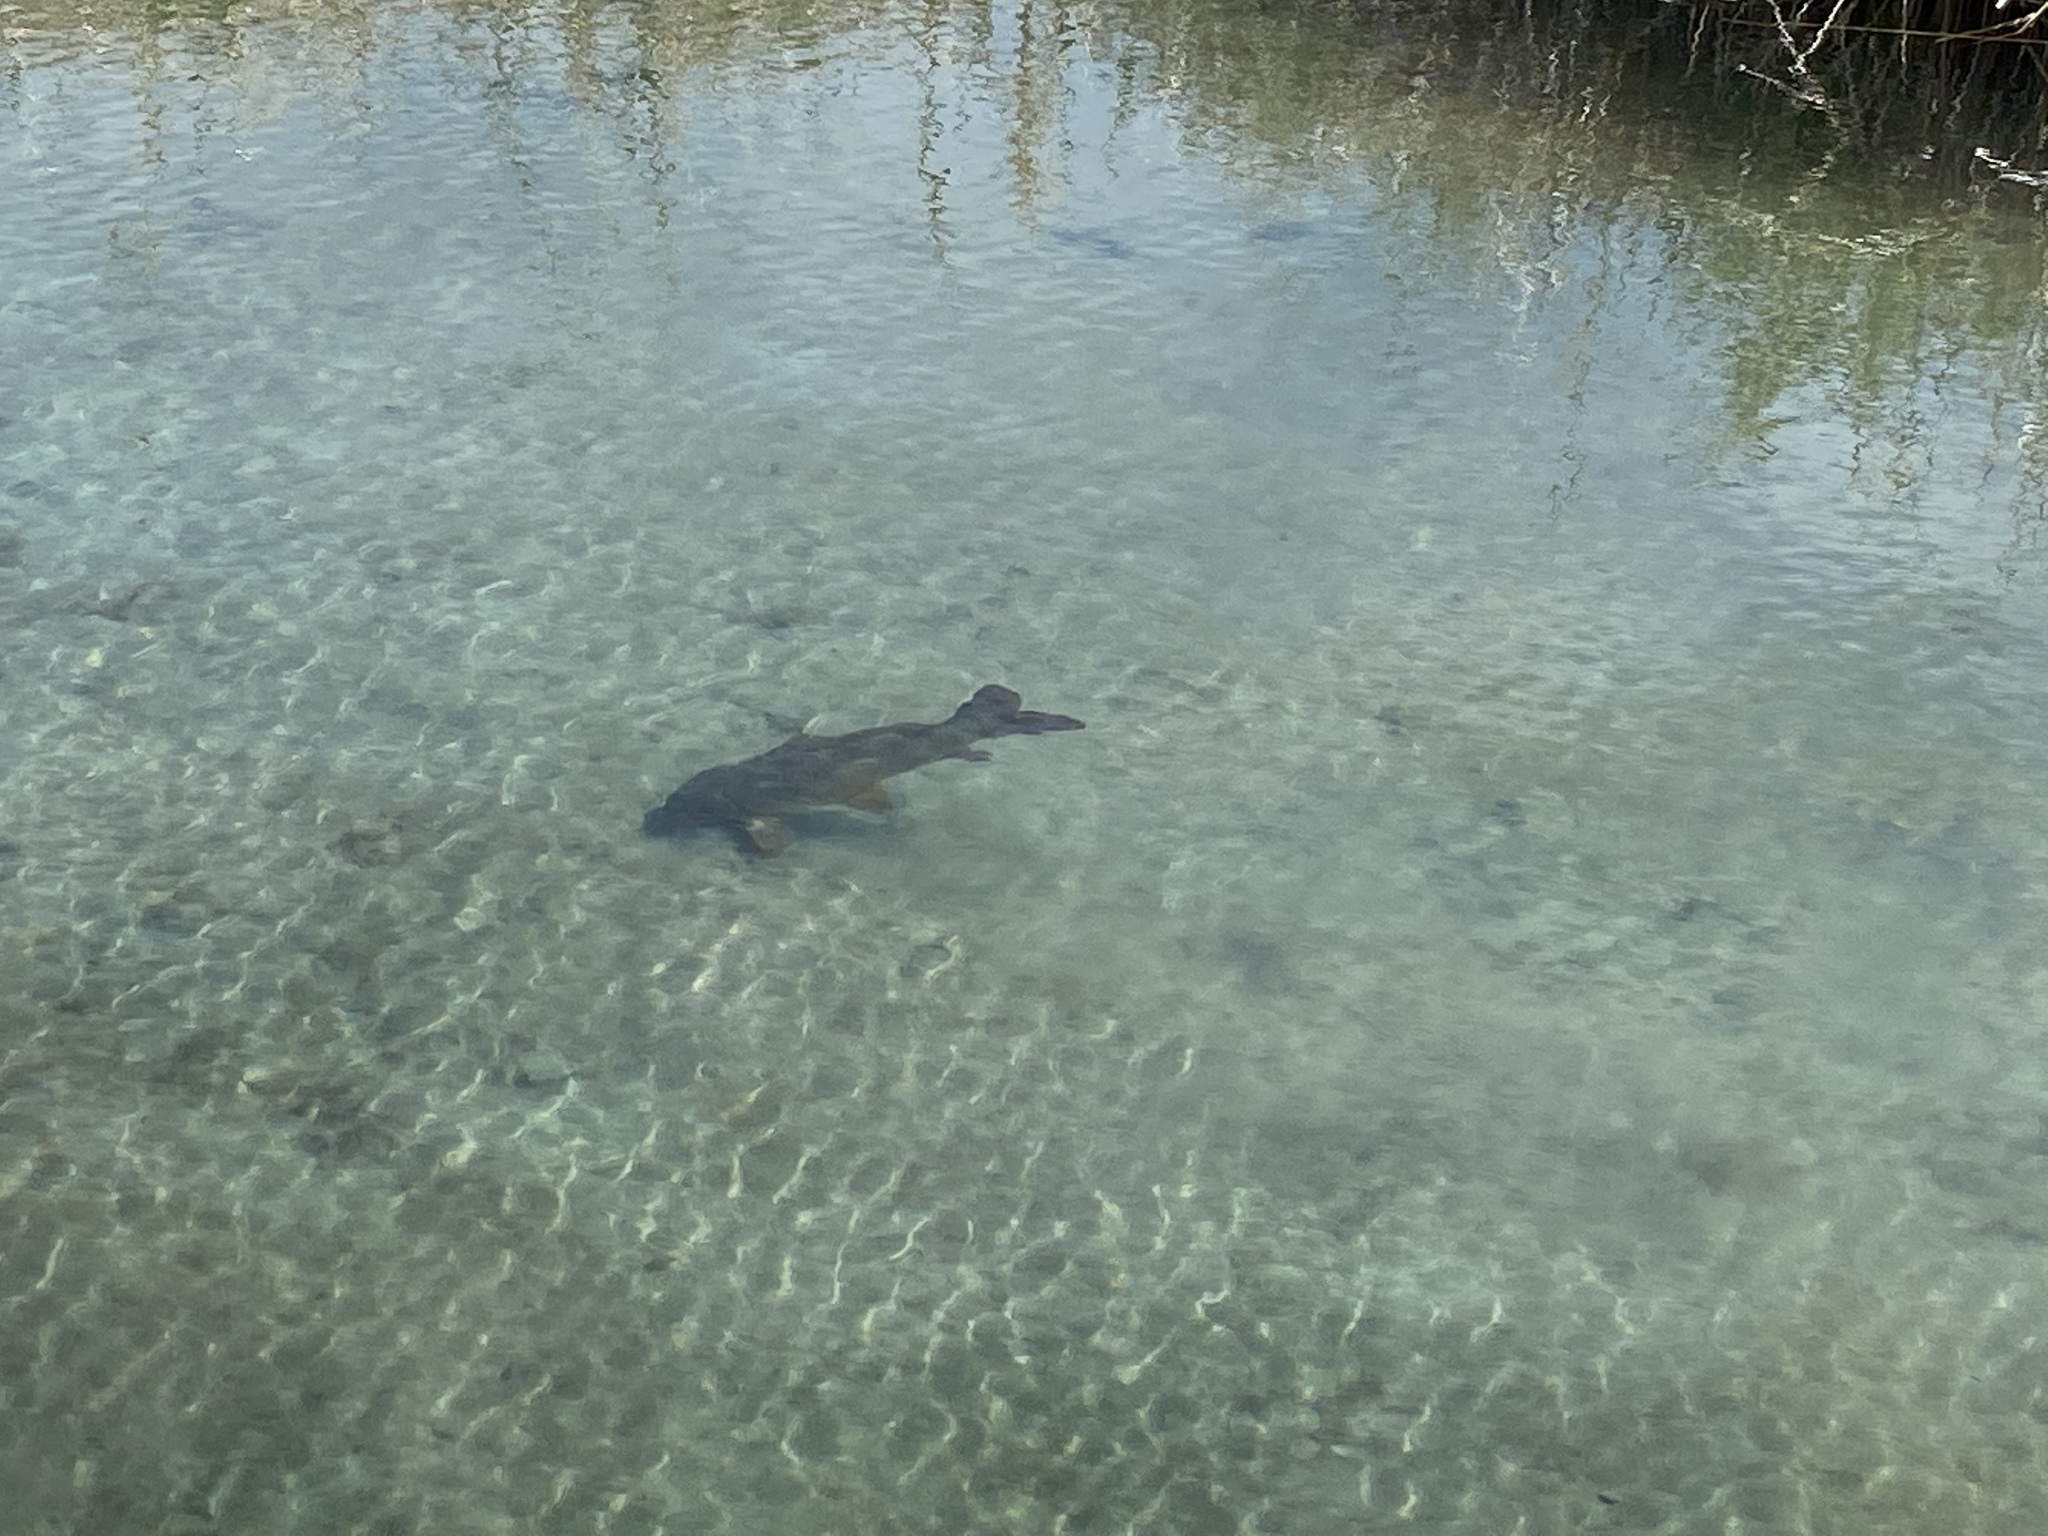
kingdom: Animalia
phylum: Chordata
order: Cypriniformes
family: Cyprinidae
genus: Cyprinus
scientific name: Cyprinus carpio
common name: Common carp
